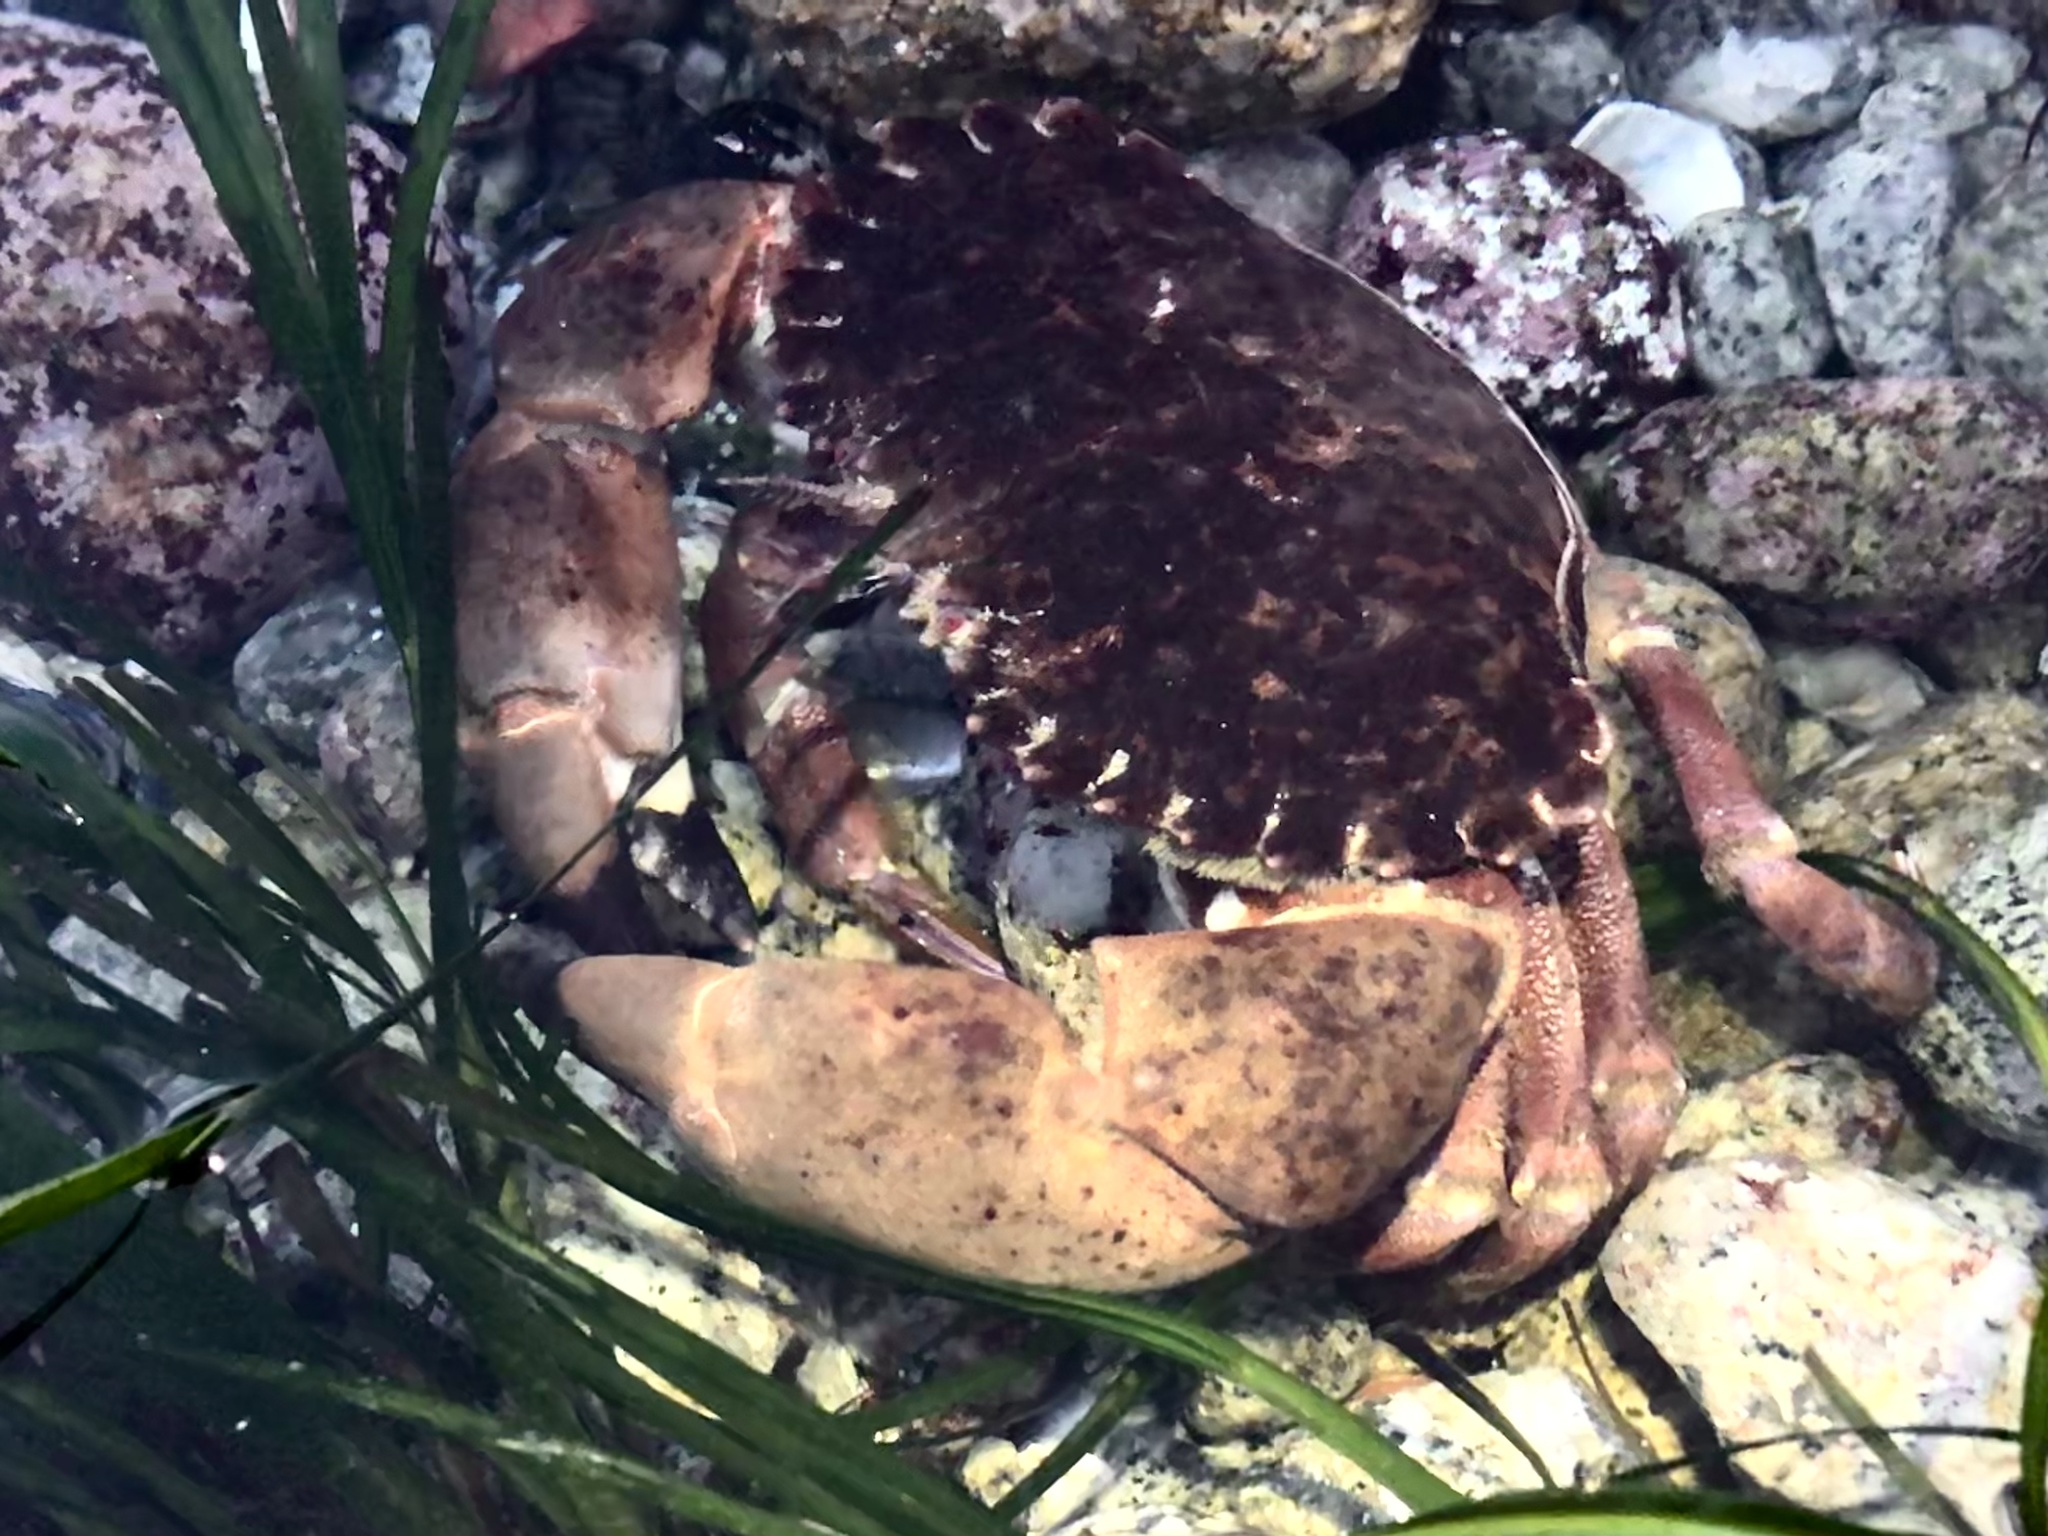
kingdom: Animalia
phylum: Arthropoda
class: Malacostraca
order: Decapoda
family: Cancridae
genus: Romaleon
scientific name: Romaleon antennarium
